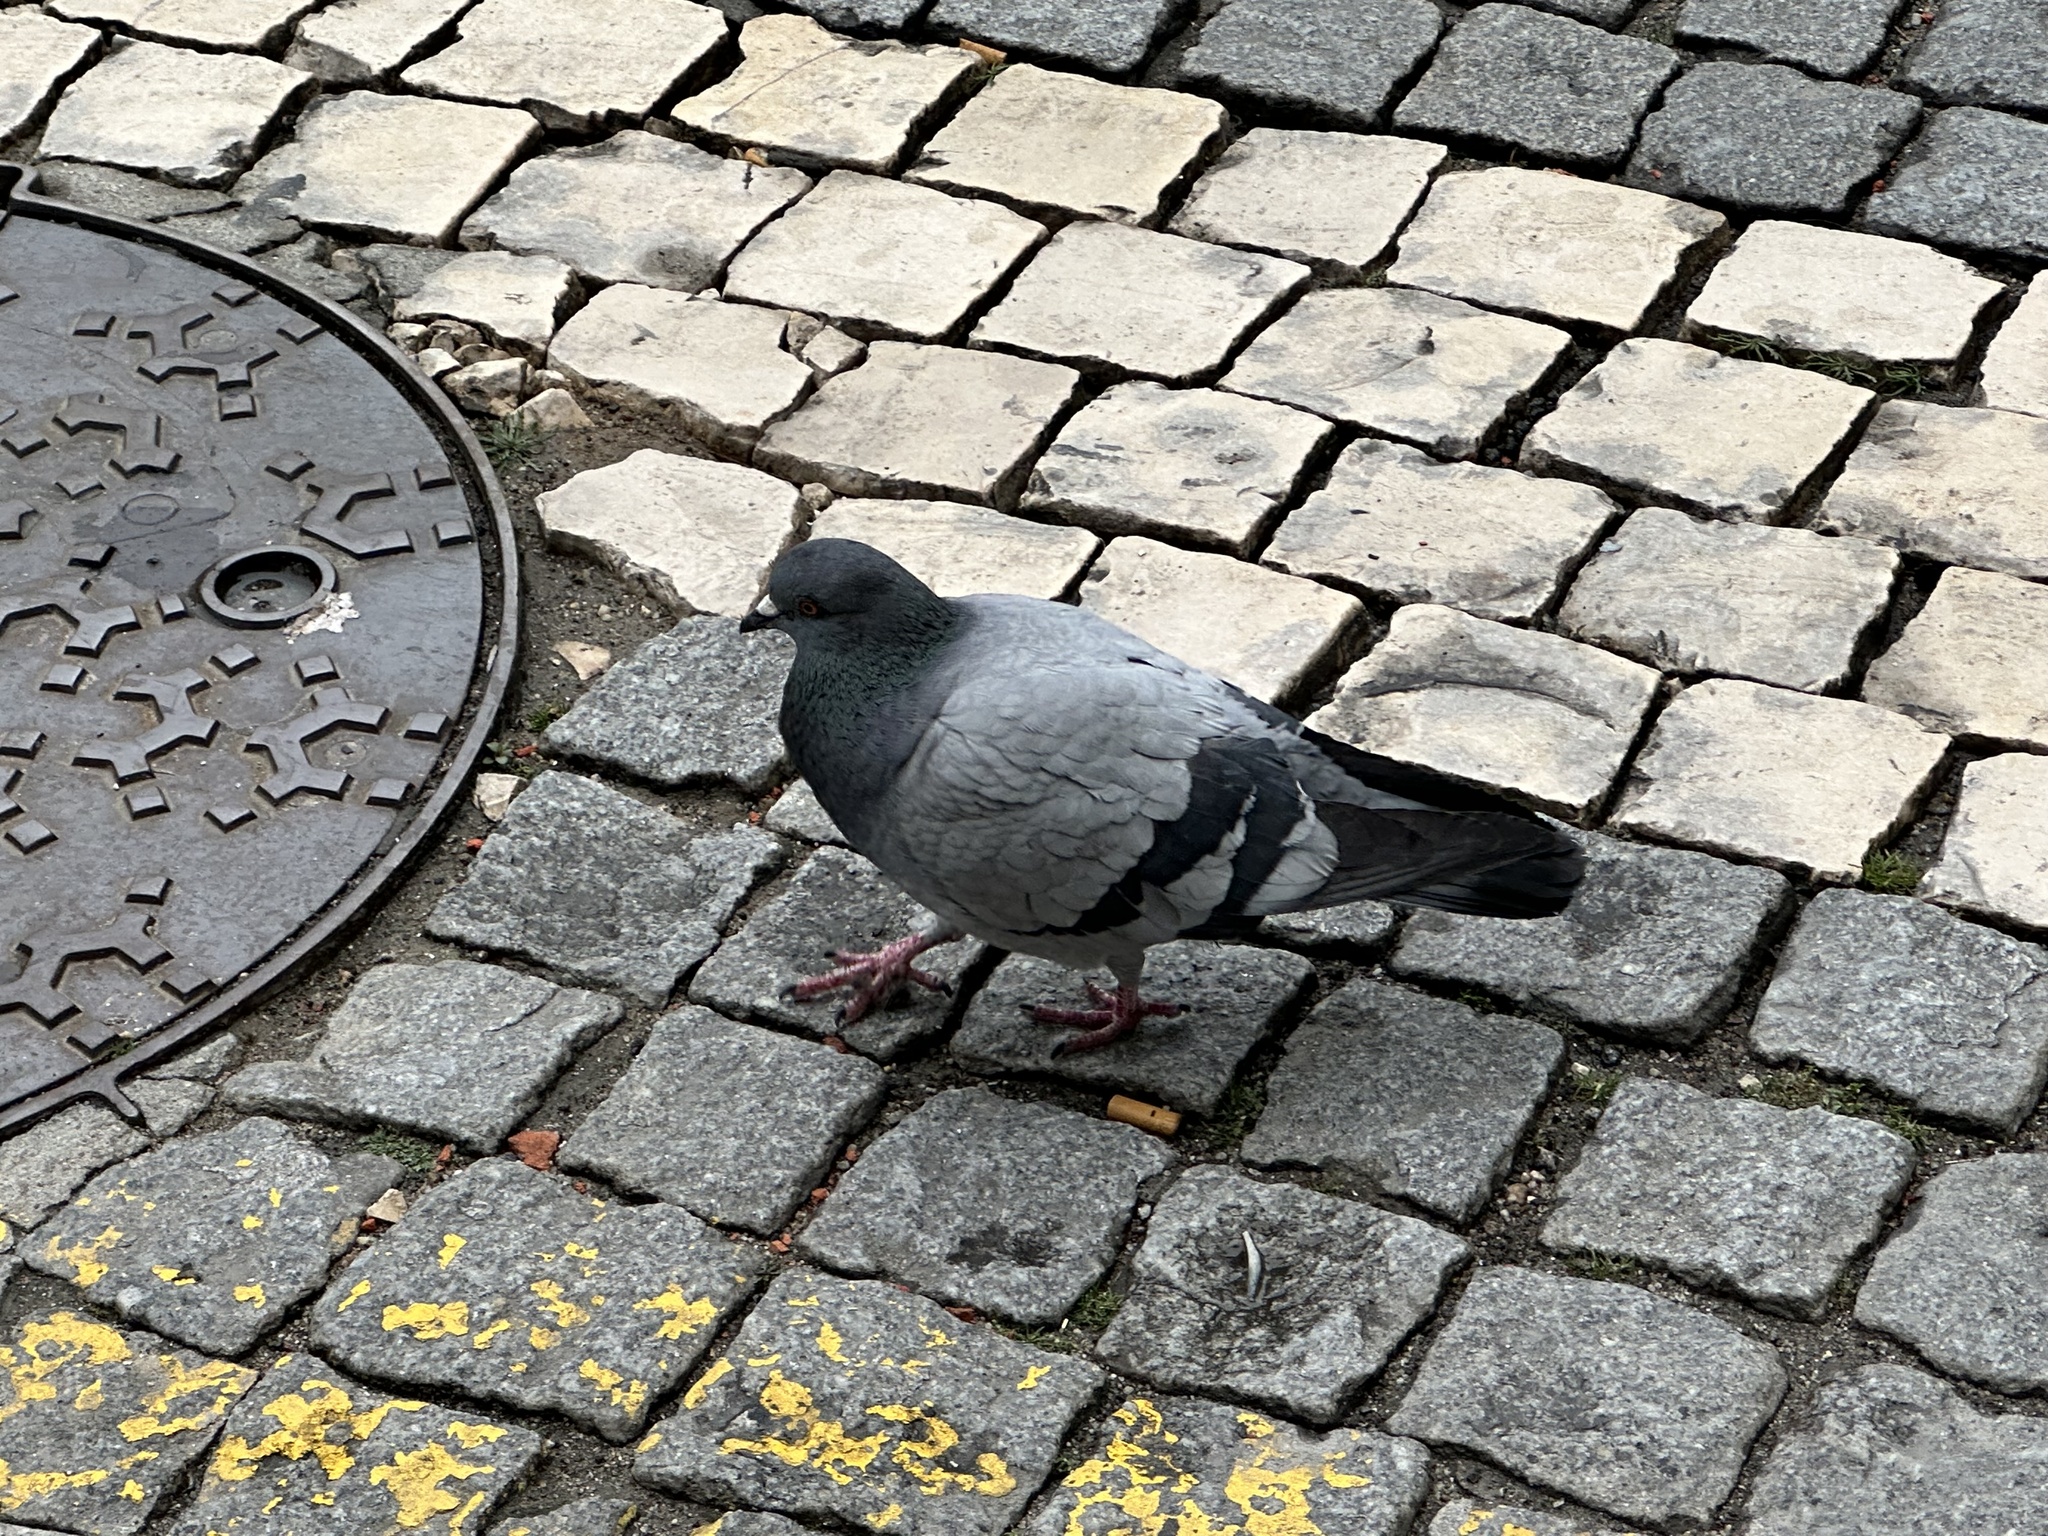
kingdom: Animalia
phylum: Chordata
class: Aves
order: Columbiformes
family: Columbidae
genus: Columba
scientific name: Columba livia
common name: Rock pigeon
